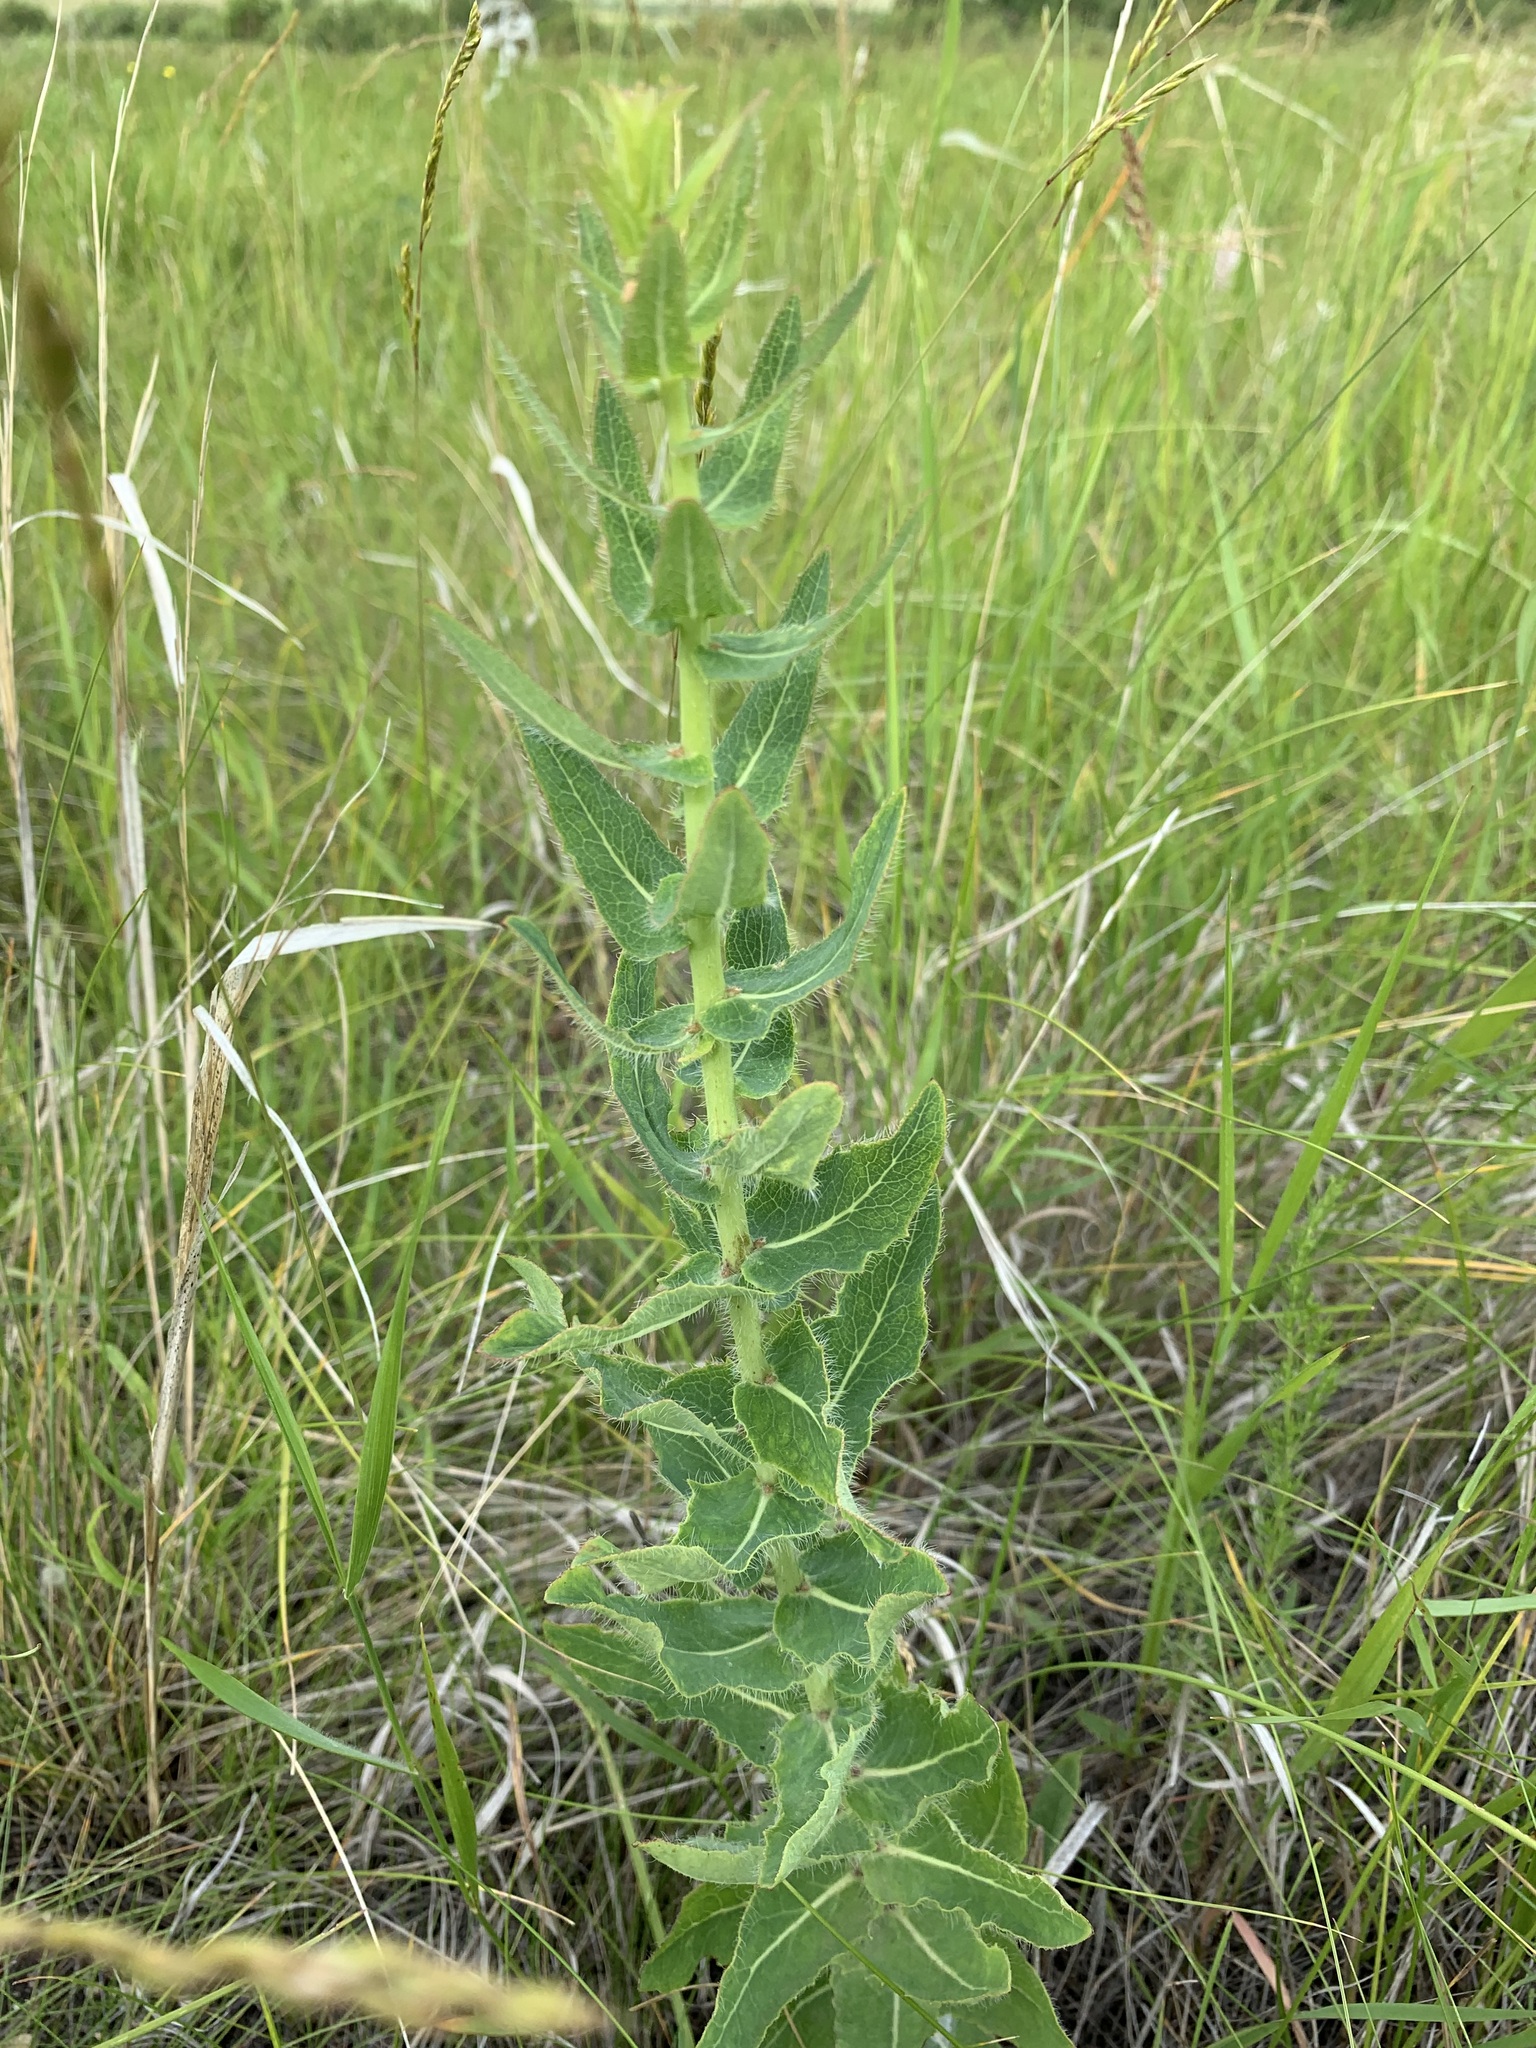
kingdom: Plantae
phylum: Tracheophyta
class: Magnoliopsida
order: Asterales
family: Asteraceae
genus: Hieracium
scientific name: Hieracium robustum
